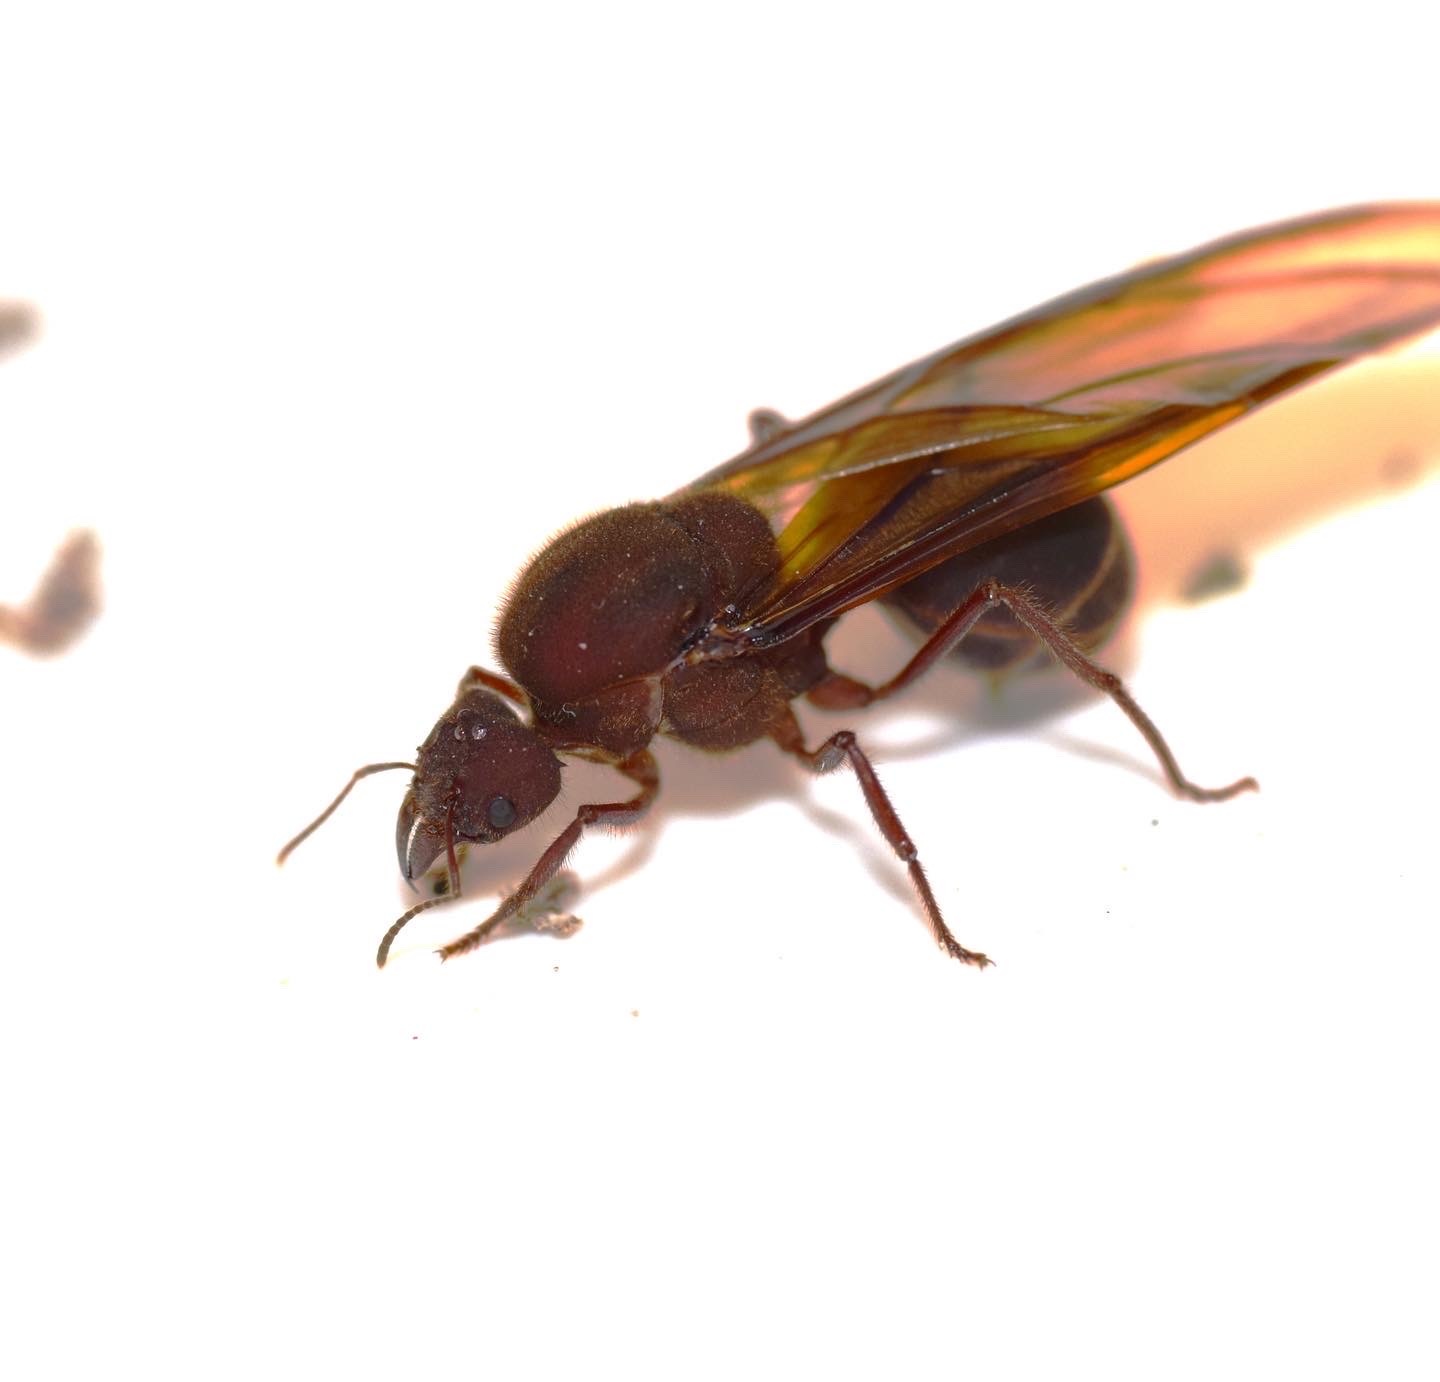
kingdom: Animalia
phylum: Arthropoda
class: Insecta
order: Hymenoptera
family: Formicidae
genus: Atta
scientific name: Atta texana
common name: Texas leafcutting ant
